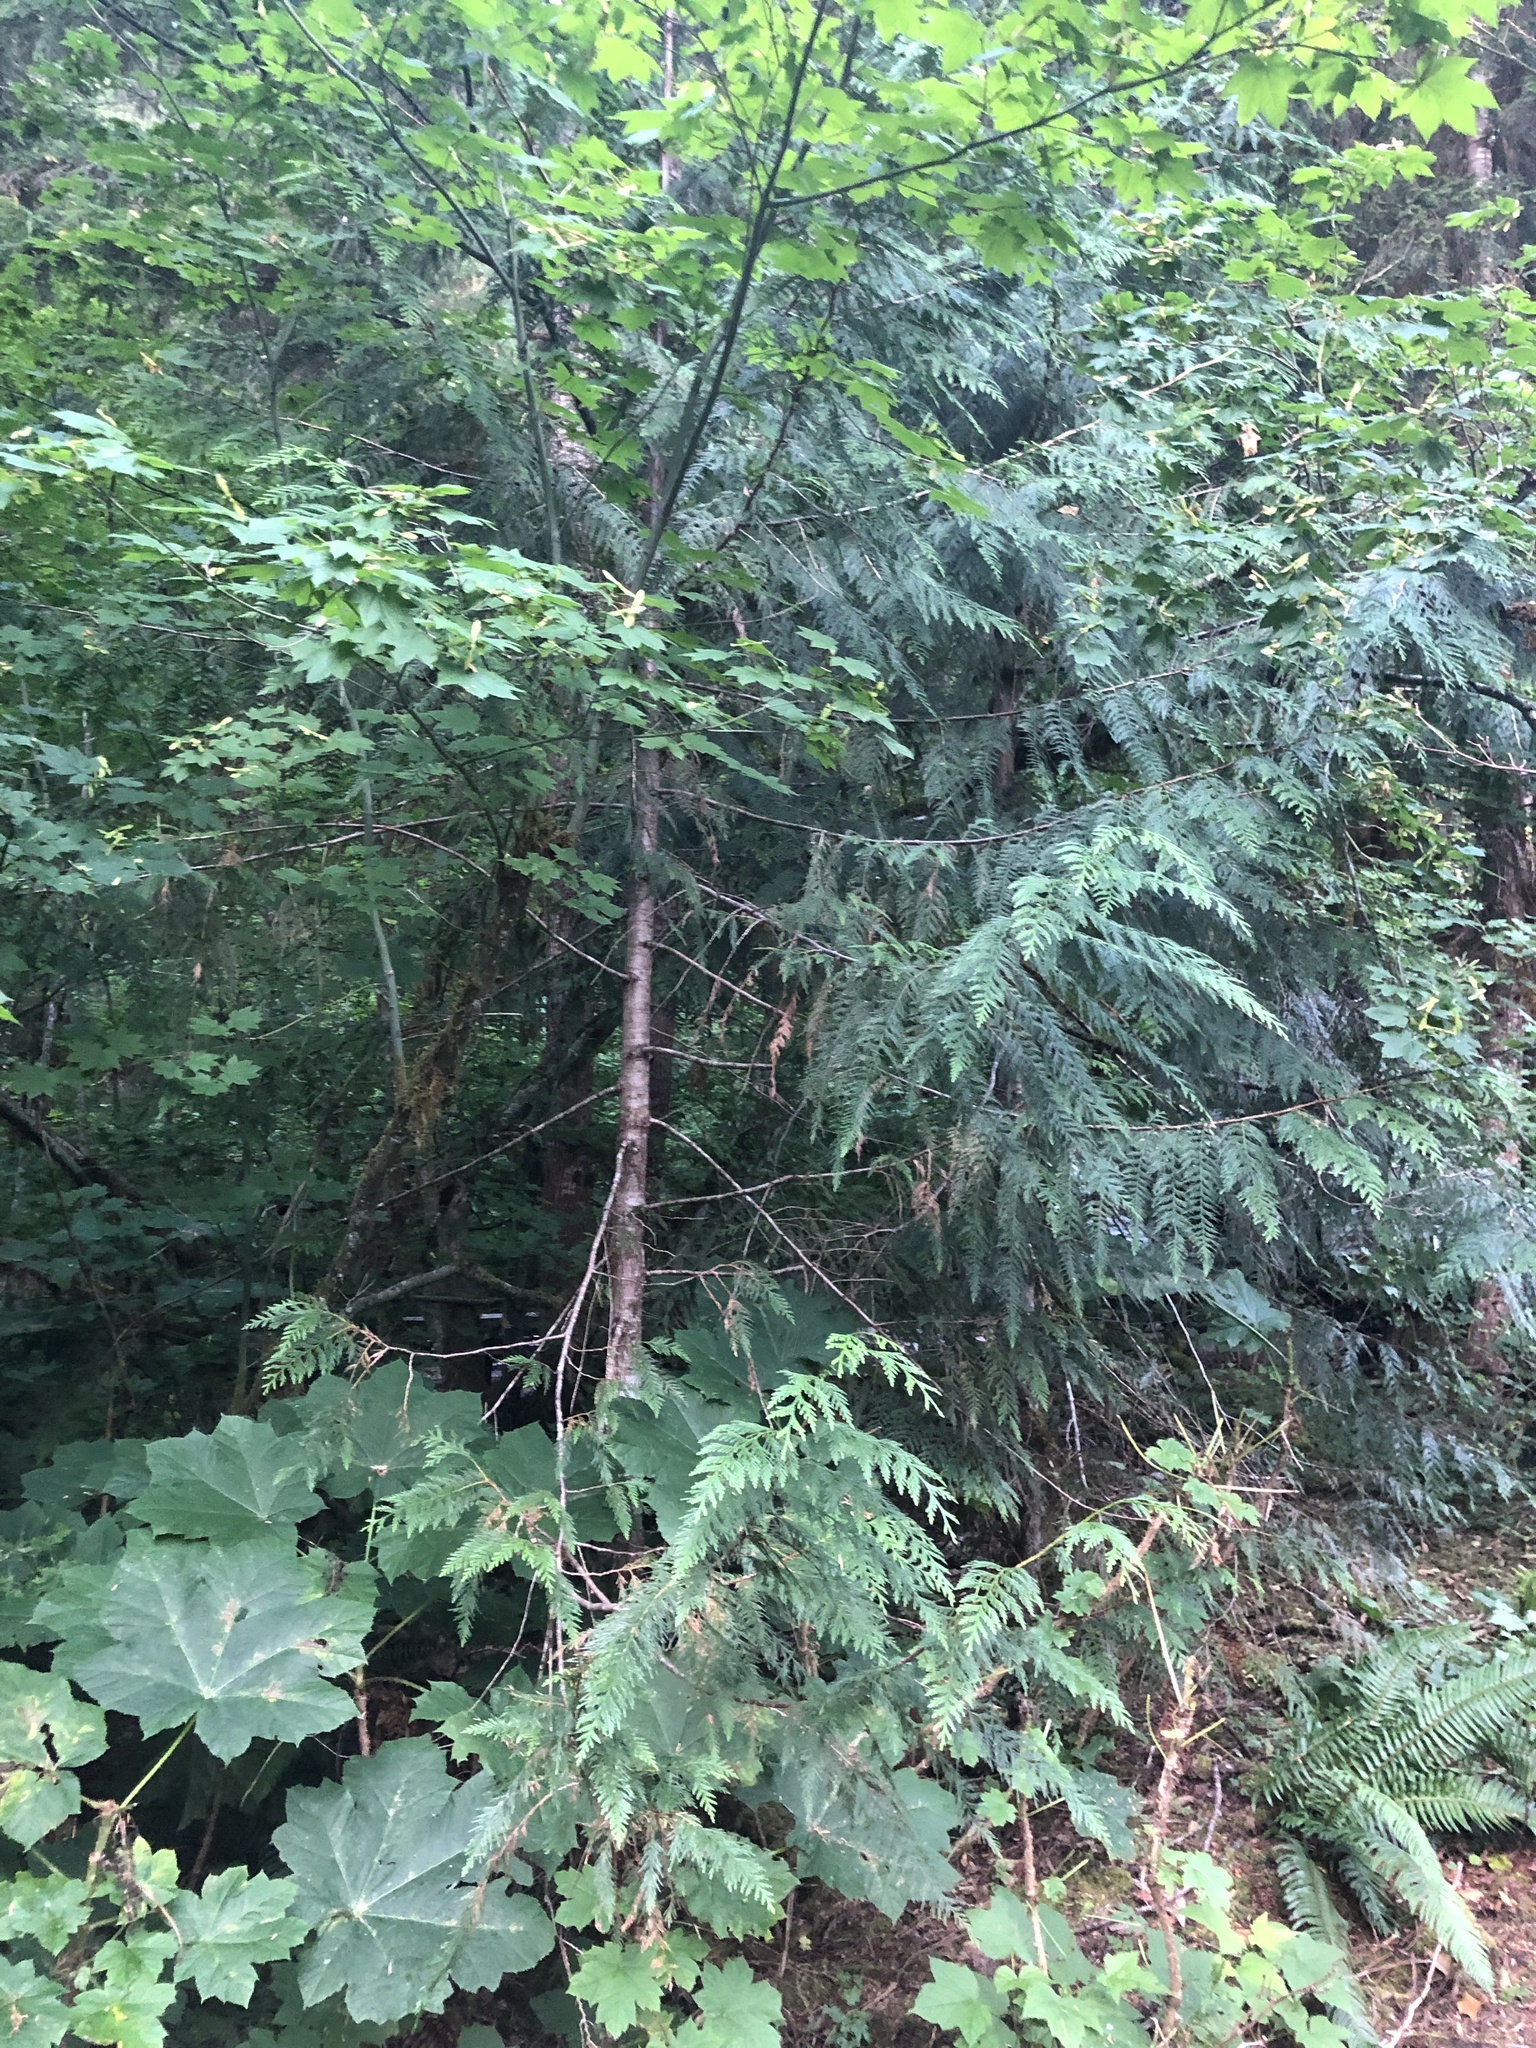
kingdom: Plantae
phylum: Tracheophyta
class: Pinopsida
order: Pinales
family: Cupressaceae
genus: Thuja
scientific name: Thuja plicata
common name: Western red-cedar
